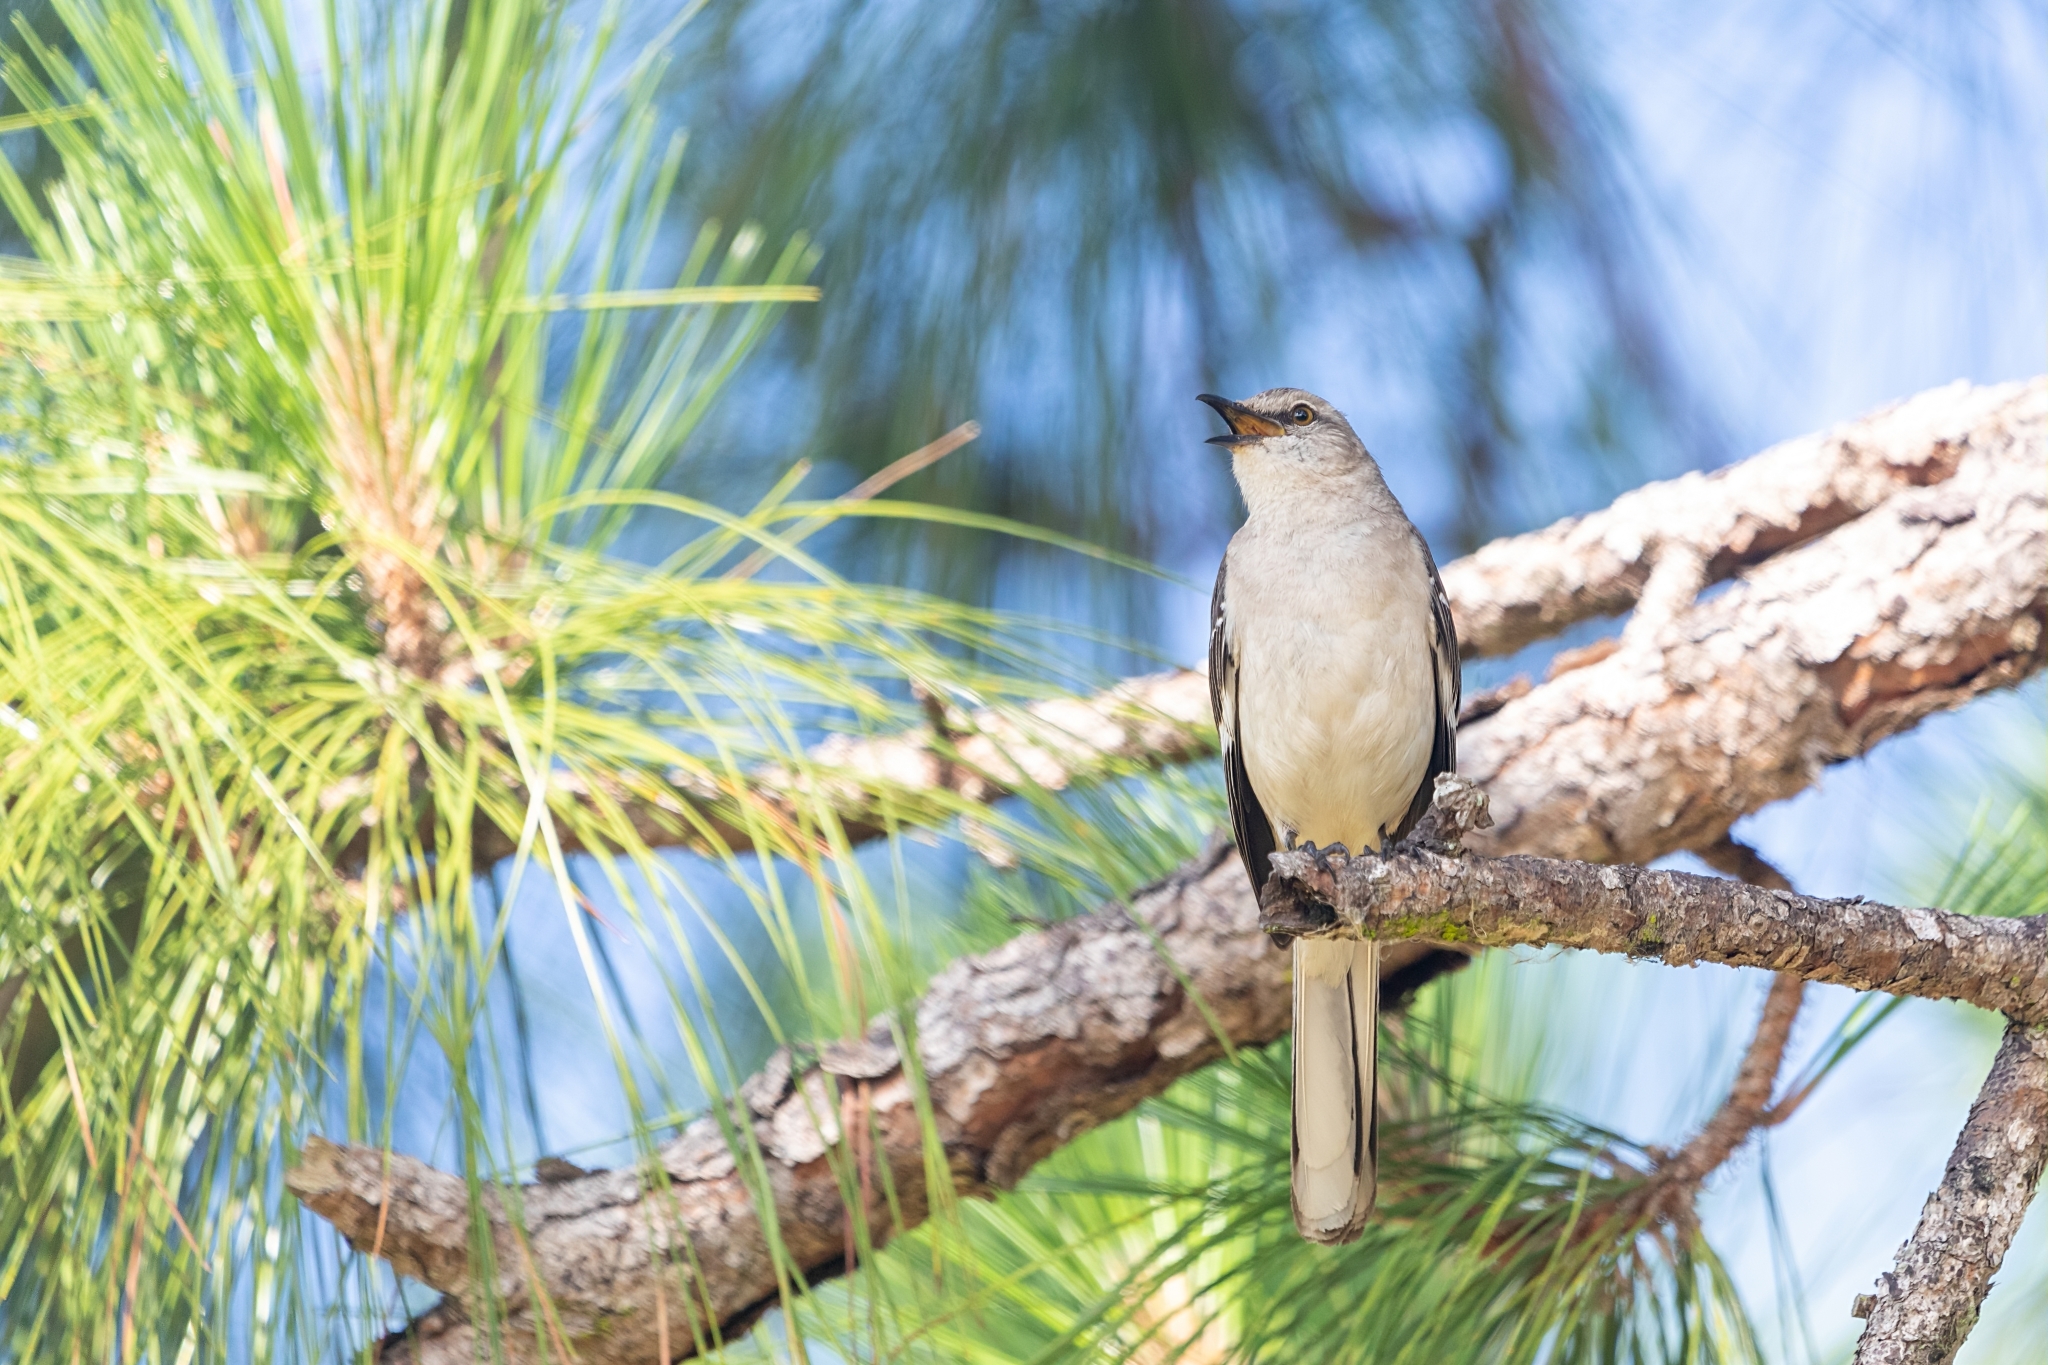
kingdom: Animalia
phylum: Chordata
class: Aves
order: Passeriformes
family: Mimidae
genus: Mimus
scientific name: Mimus polyglottos
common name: Northern mockingbird
